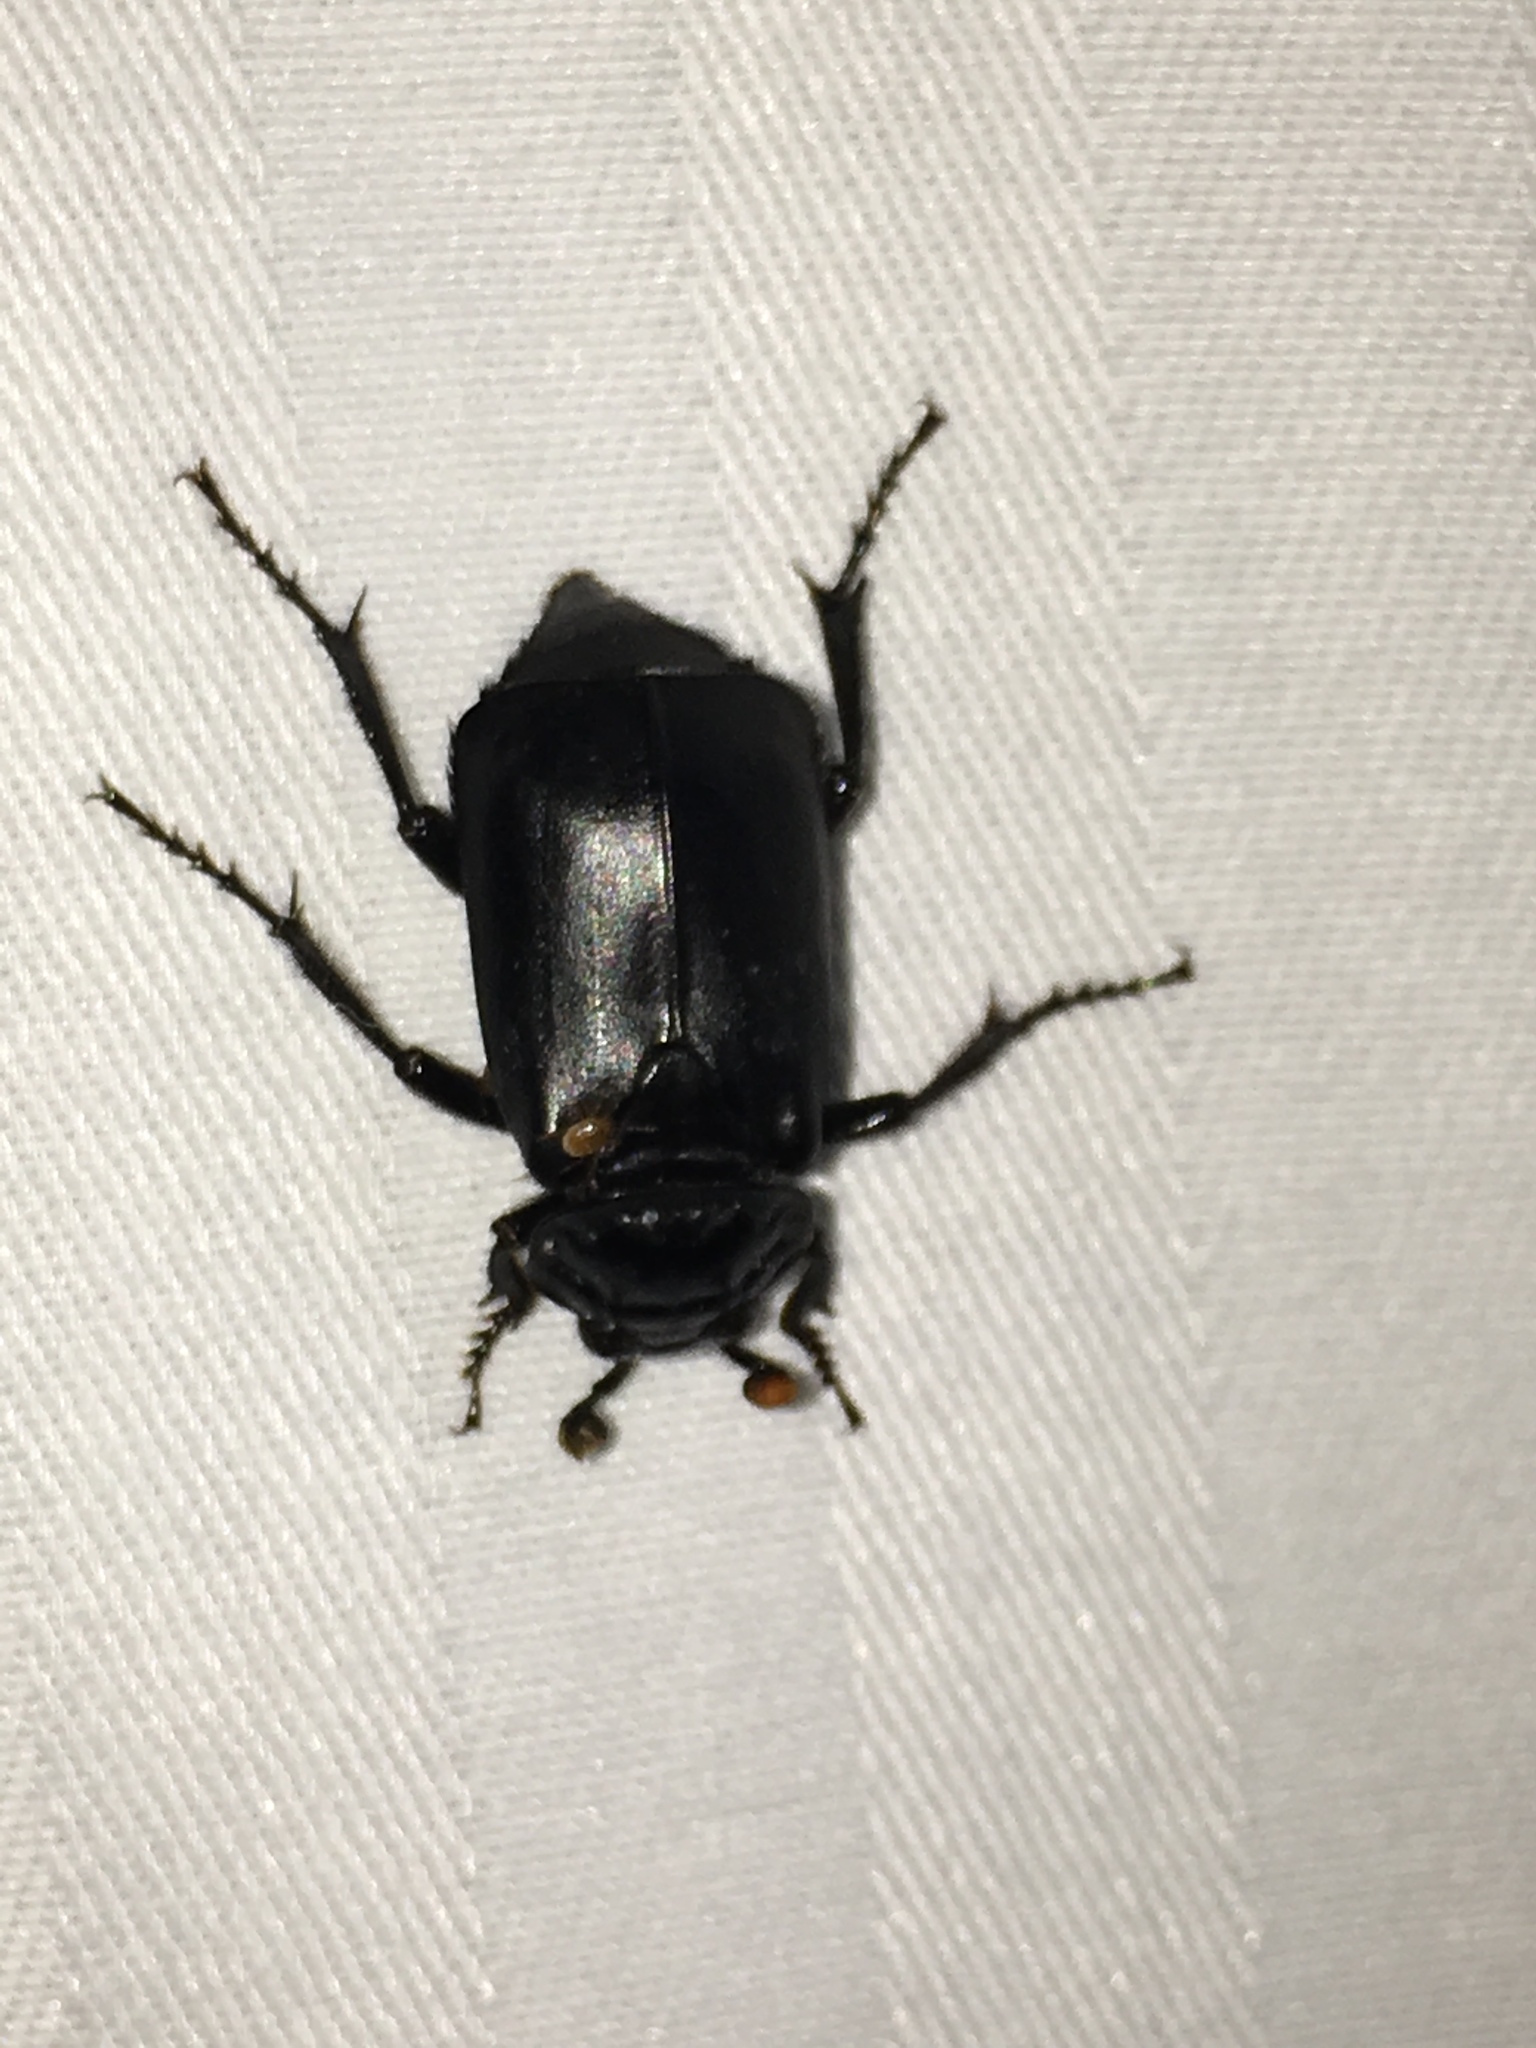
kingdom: Animalia
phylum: Arthropoda
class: Insecta
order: Coleoptera
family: Staphylinidae
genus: Nicrophorus
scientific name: Nicrophorus nigrita
